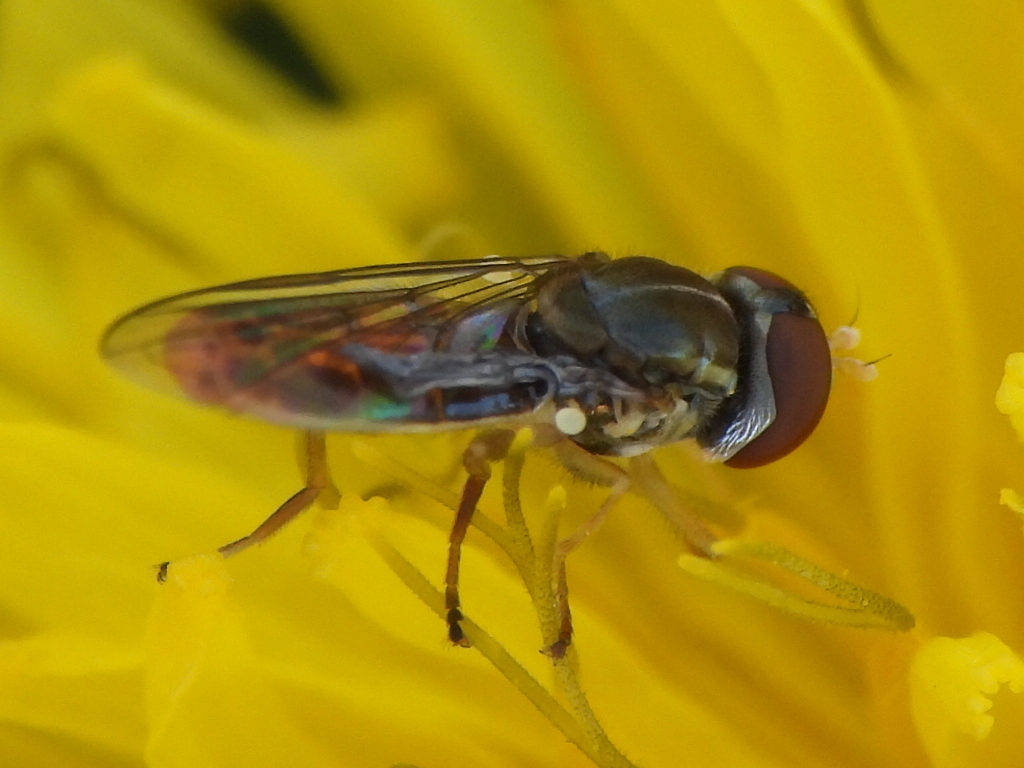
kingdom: Animalia
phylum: Arthropoda
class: Insecta
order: Diptera
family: Syrphidae
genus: Toxomerus
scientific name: Toxomerus marginatus
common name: Syrphid fly
